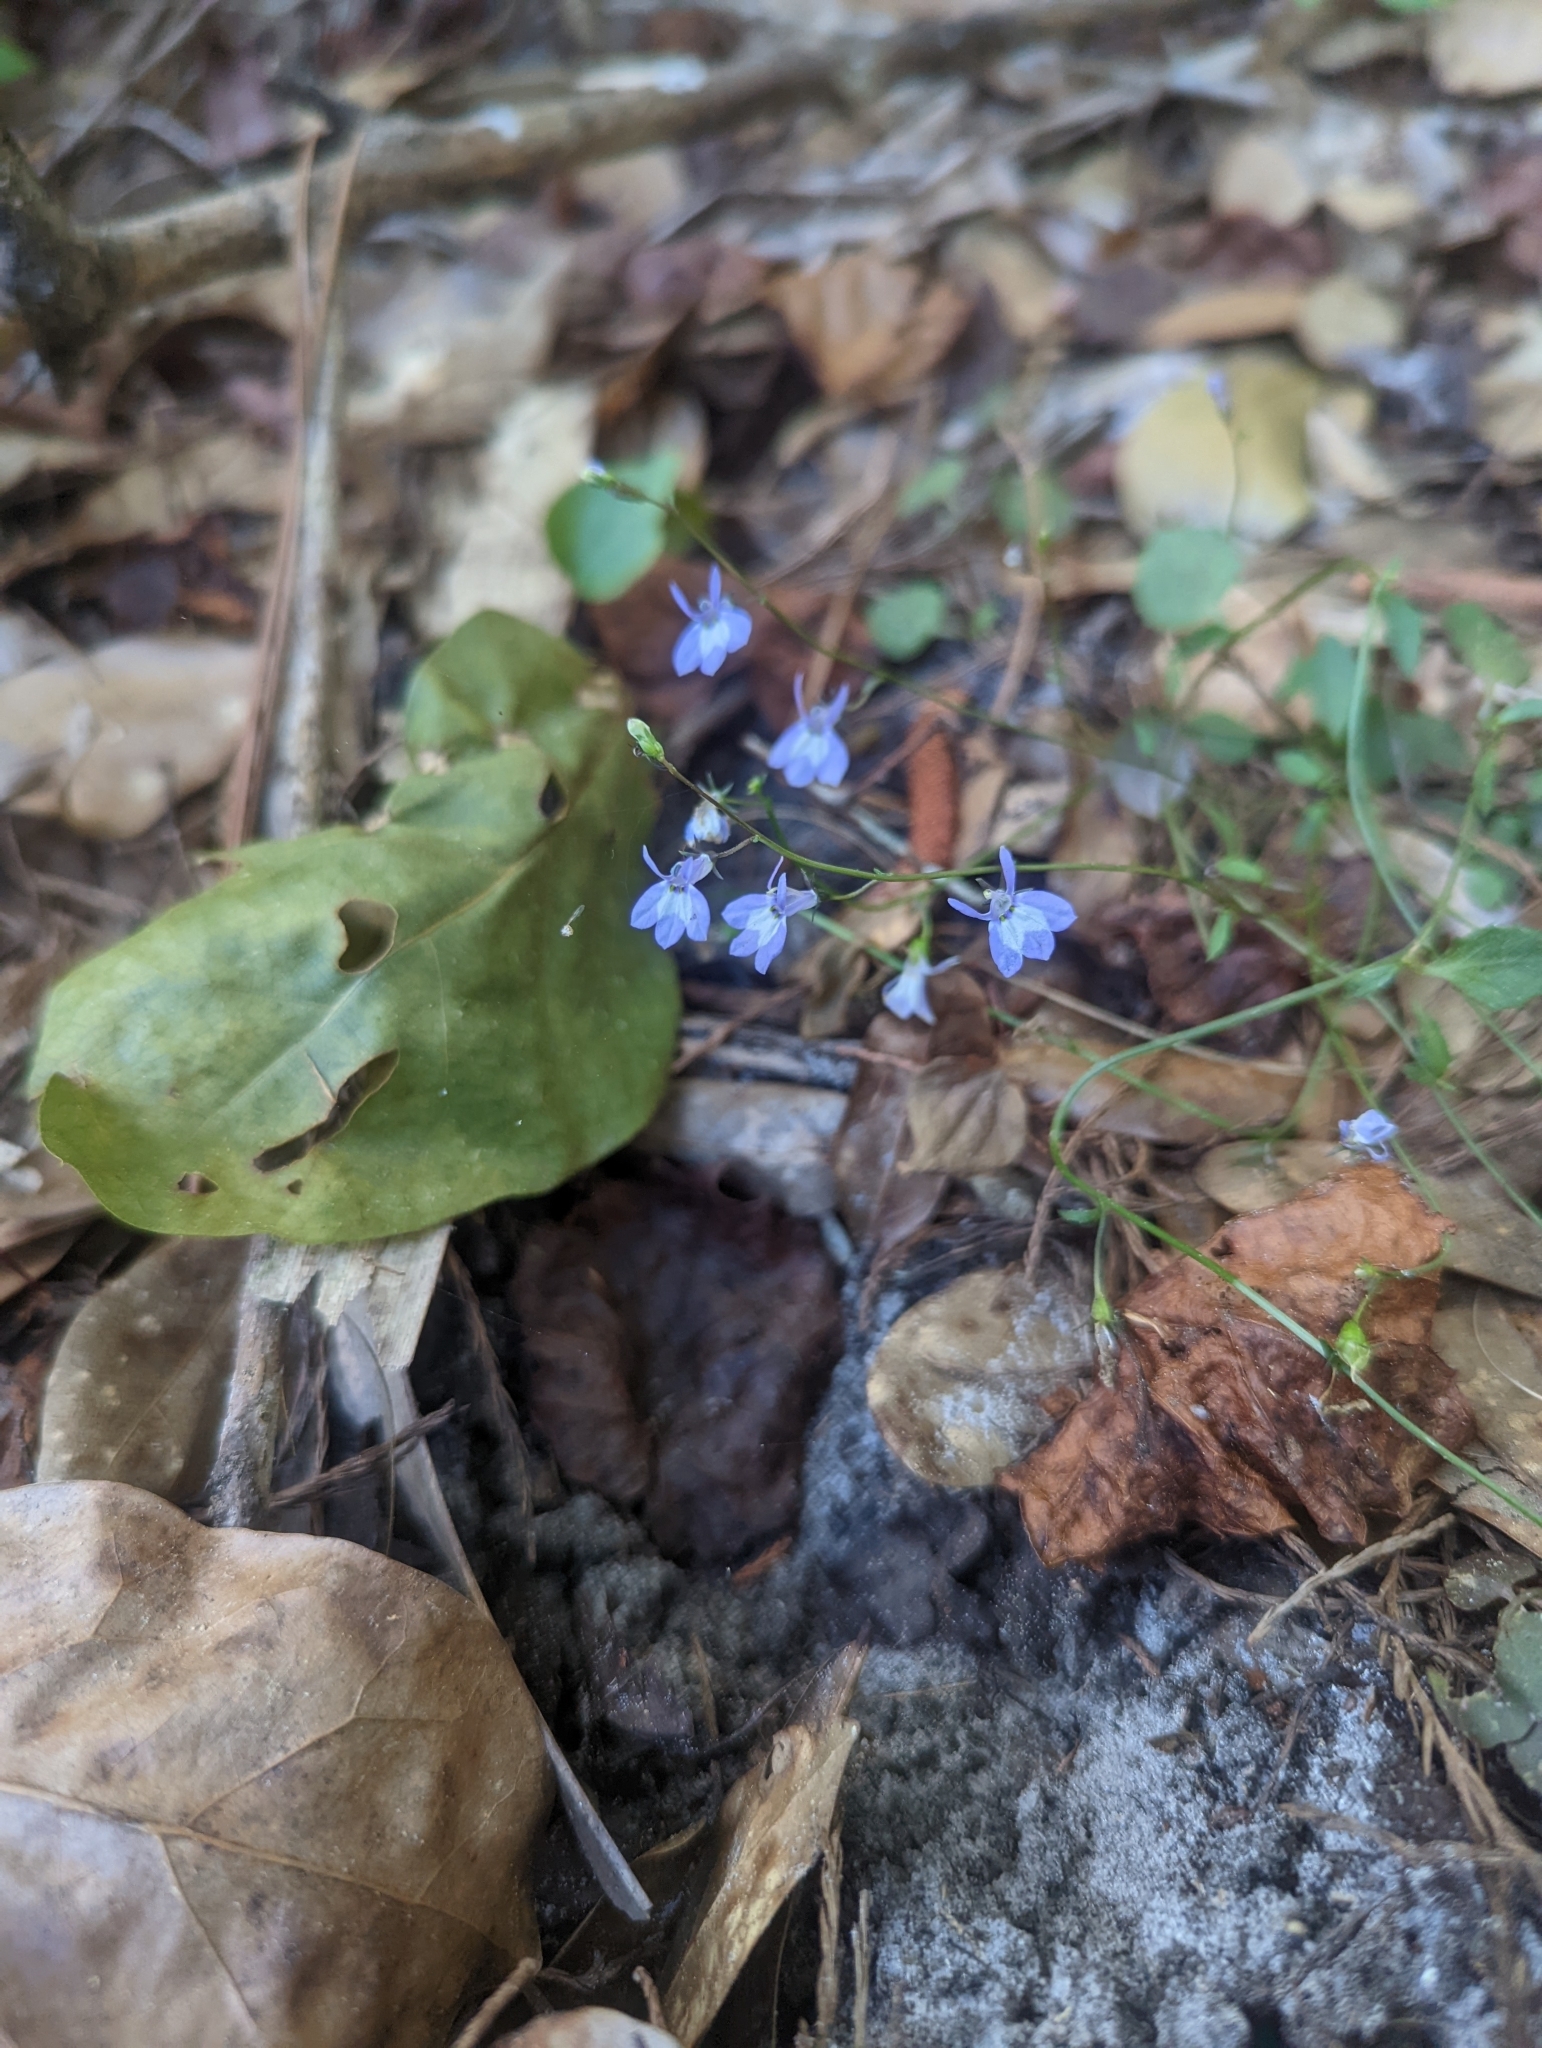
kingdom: Plantae
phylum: Tracheophyta
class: Magnoliopsida
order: Asterales
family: Campanulaceae
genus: Lobelia
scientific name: Lobelia feayana
